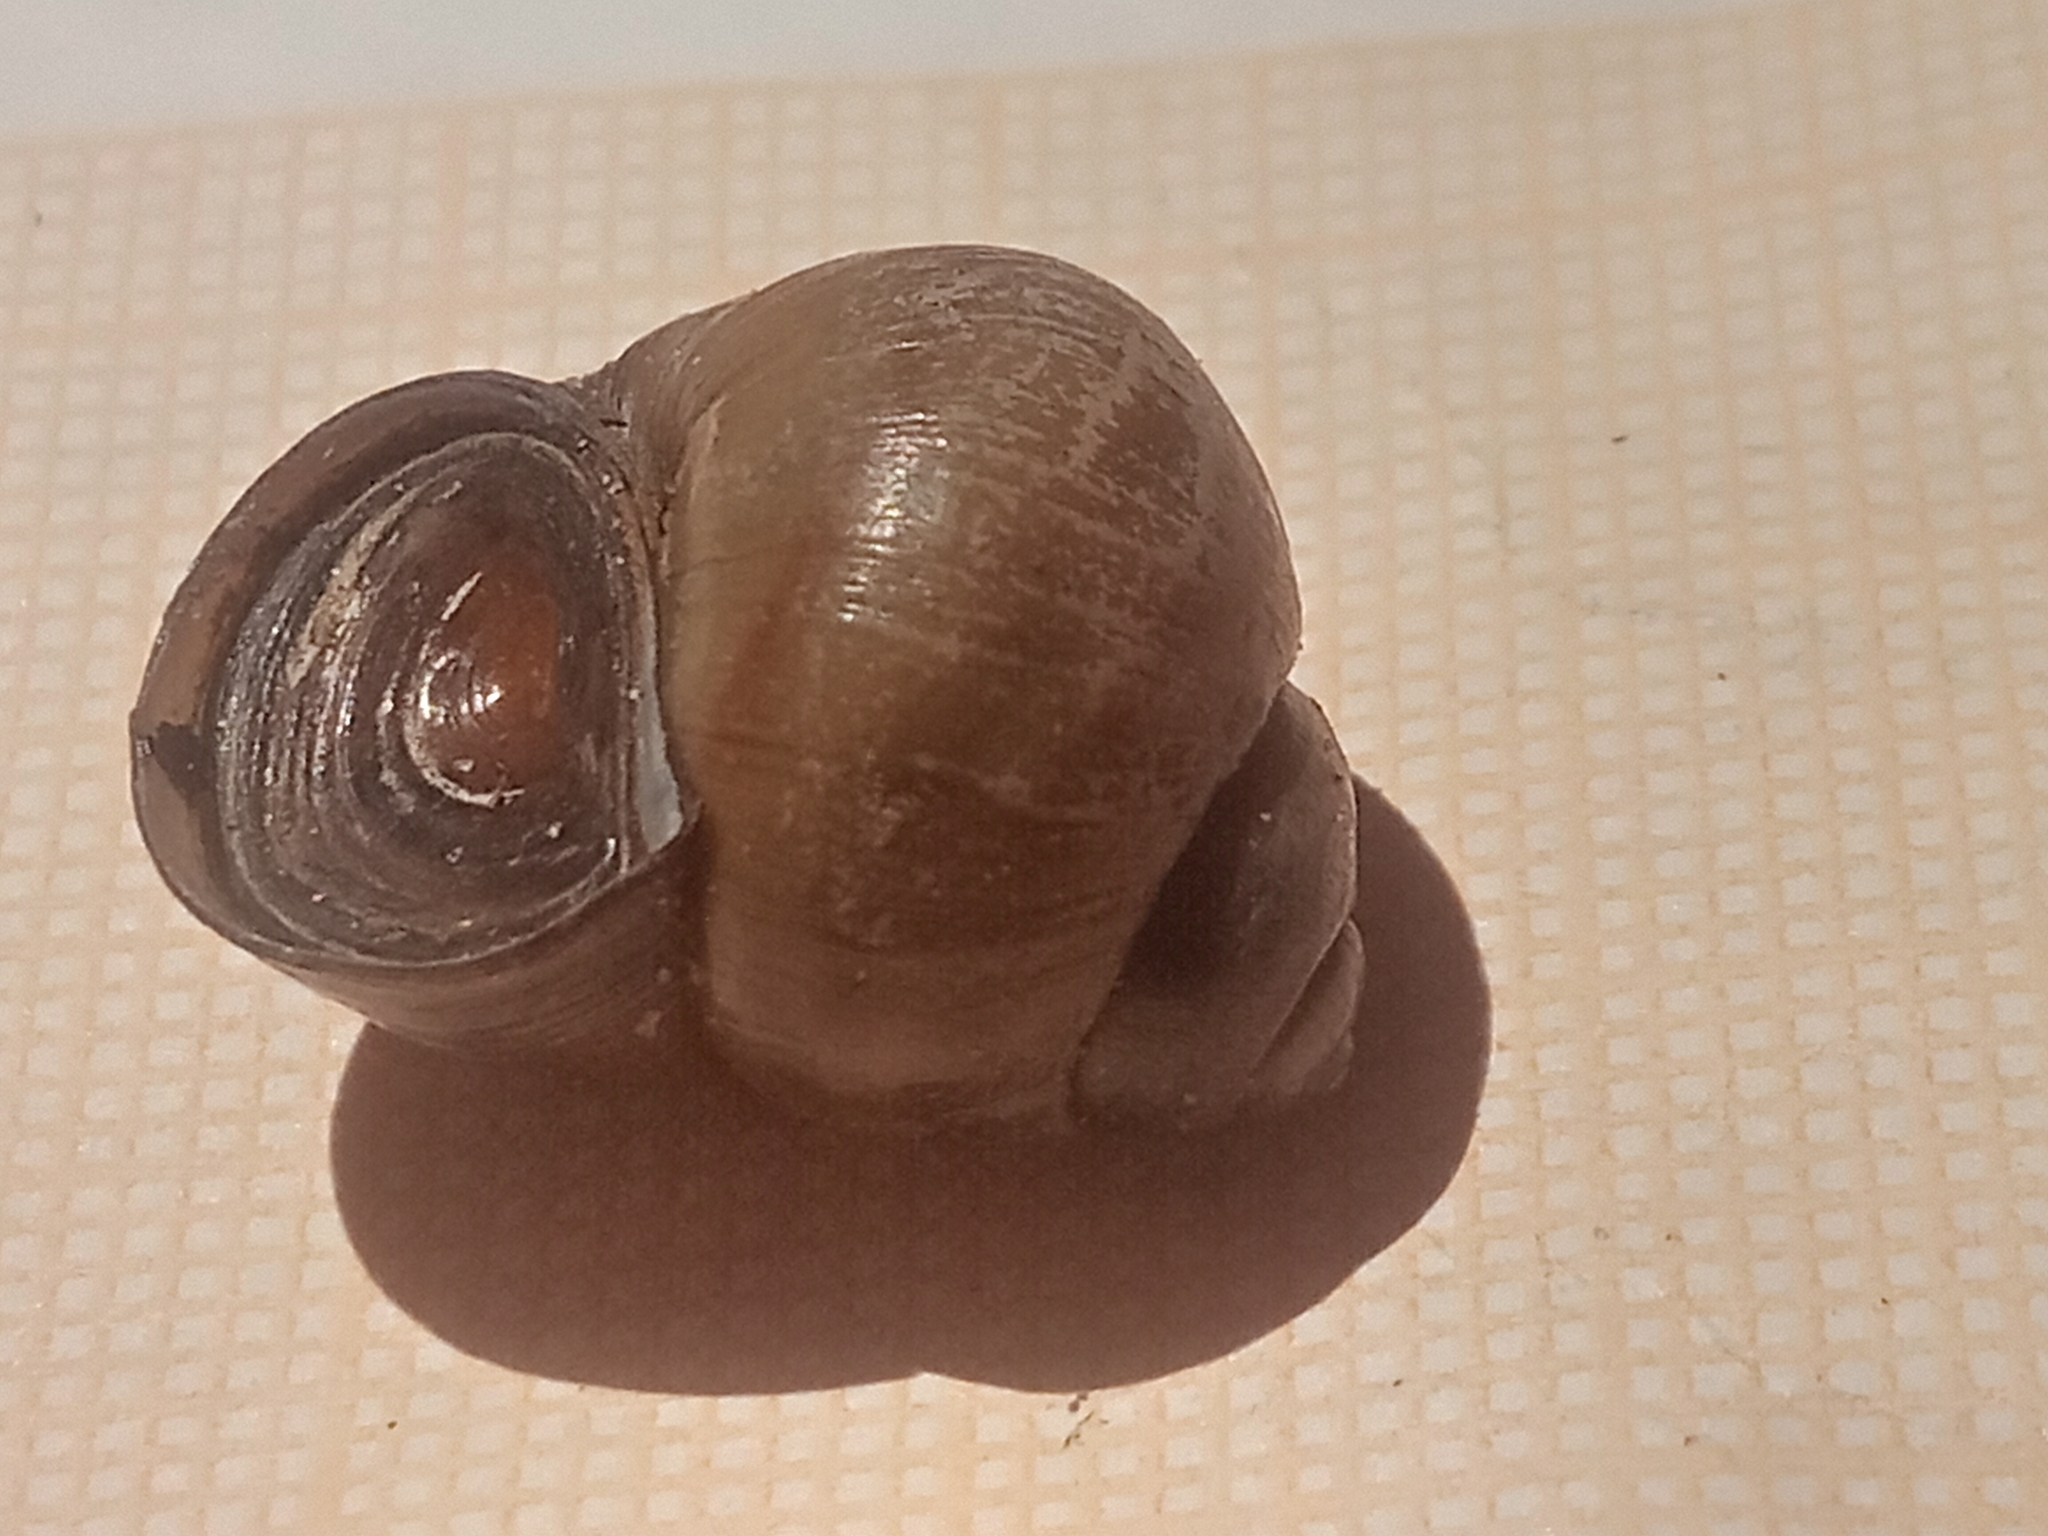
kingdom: Animalia
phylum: Mollusca
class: Gastropoda
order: Architaenioglossa
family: Viviparidae
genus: Viviparus
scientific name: Viviparus viviparus
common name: River snail
